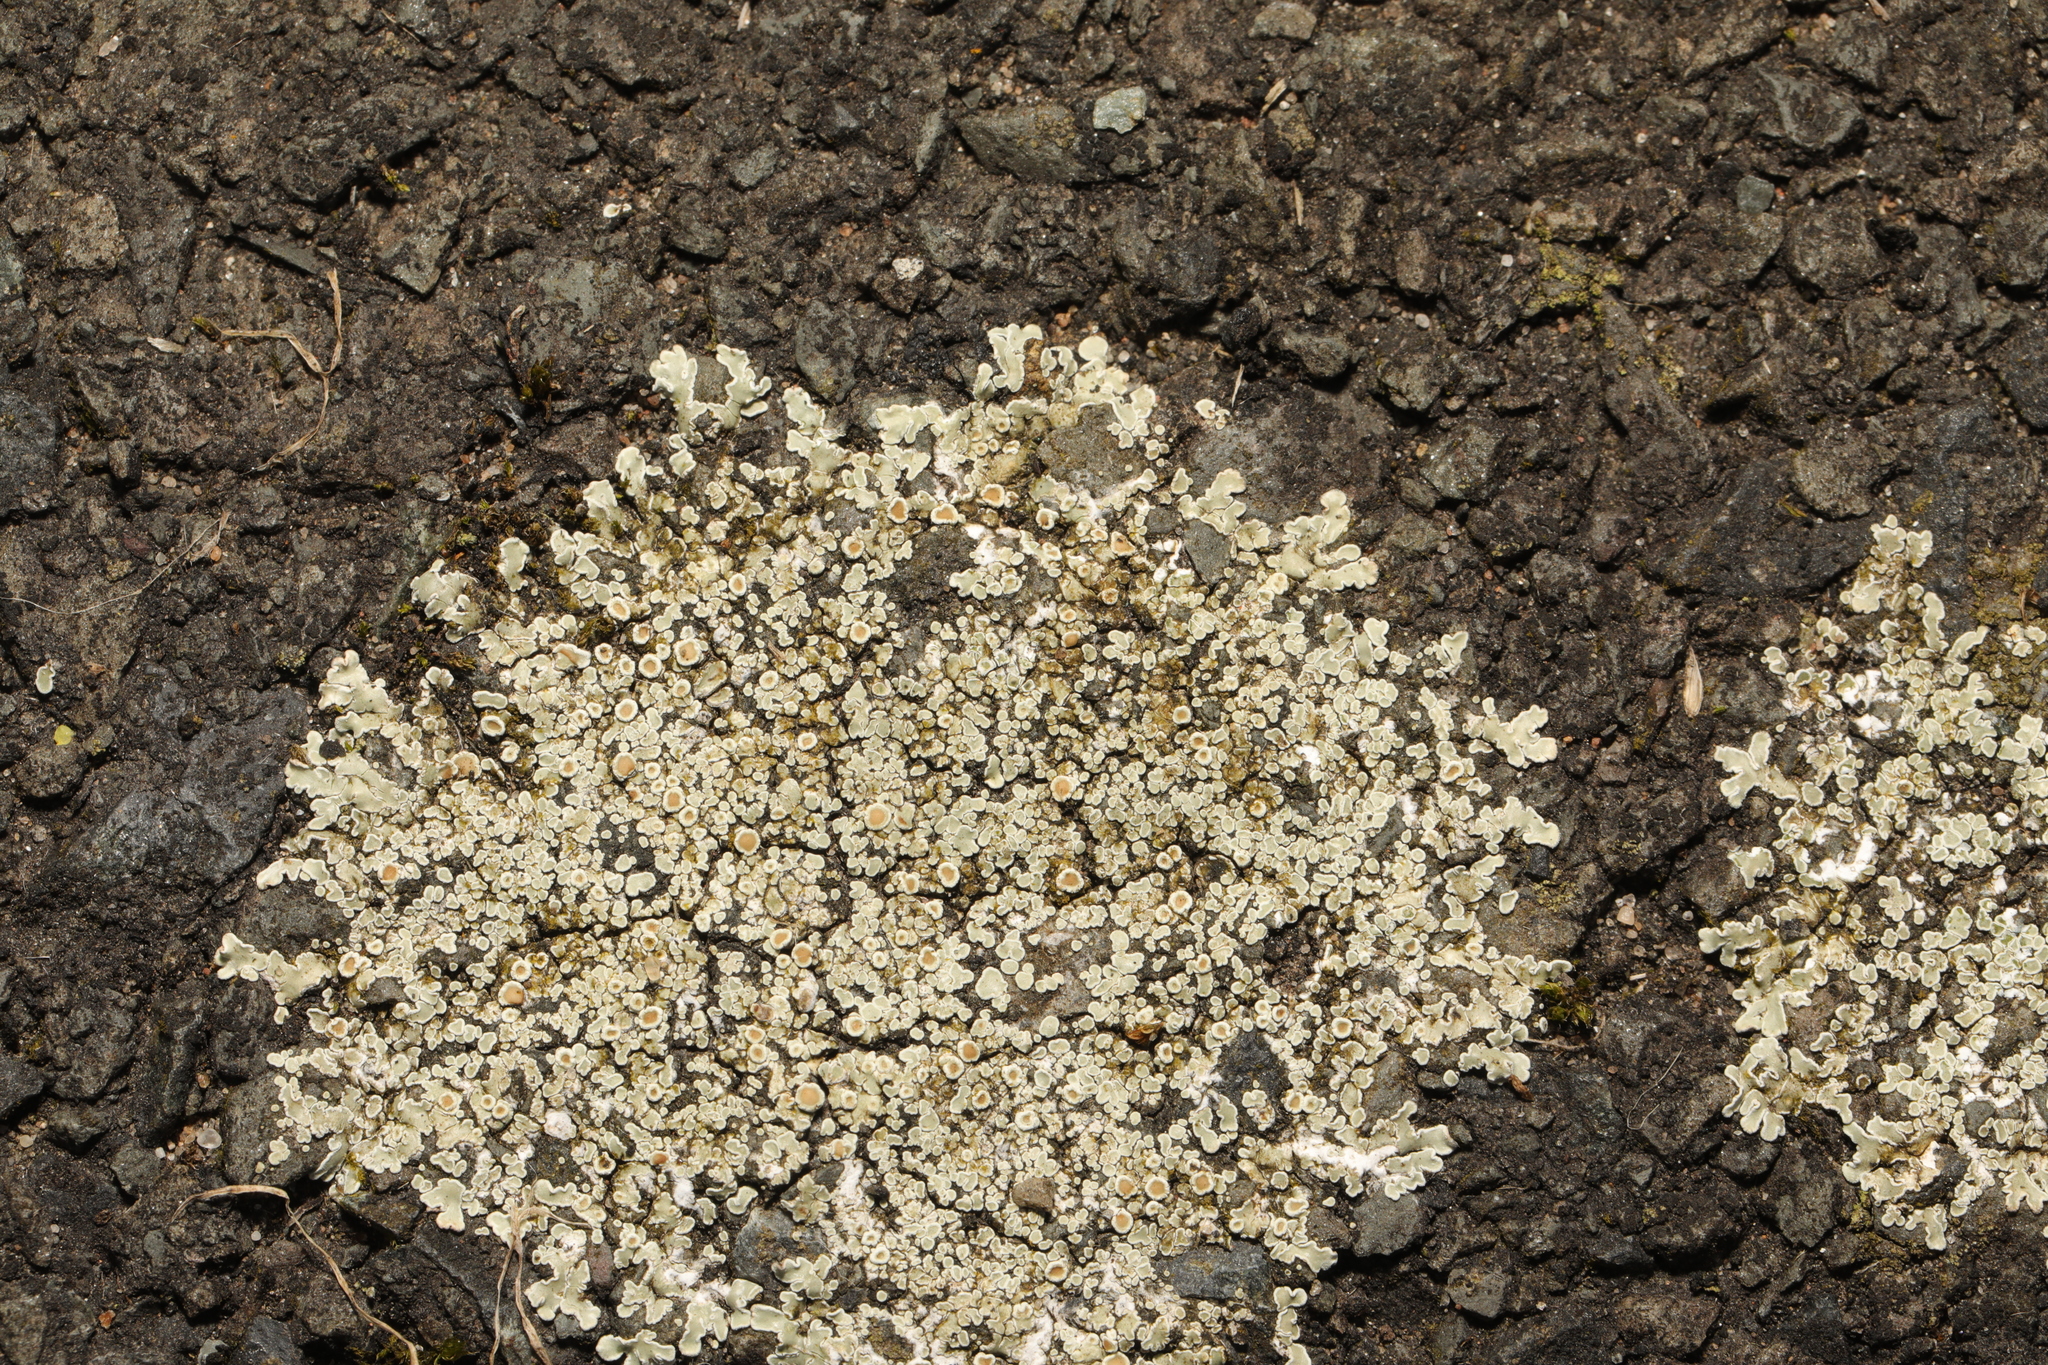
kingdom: Fungi
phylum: Ascomycota
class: Lecanoromycetes
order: Lecanorales
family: Lecanoraceae
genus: Protoparmeliopsis
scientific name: Protoparmeliopsis muralis
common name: Stonewall rim lichen
